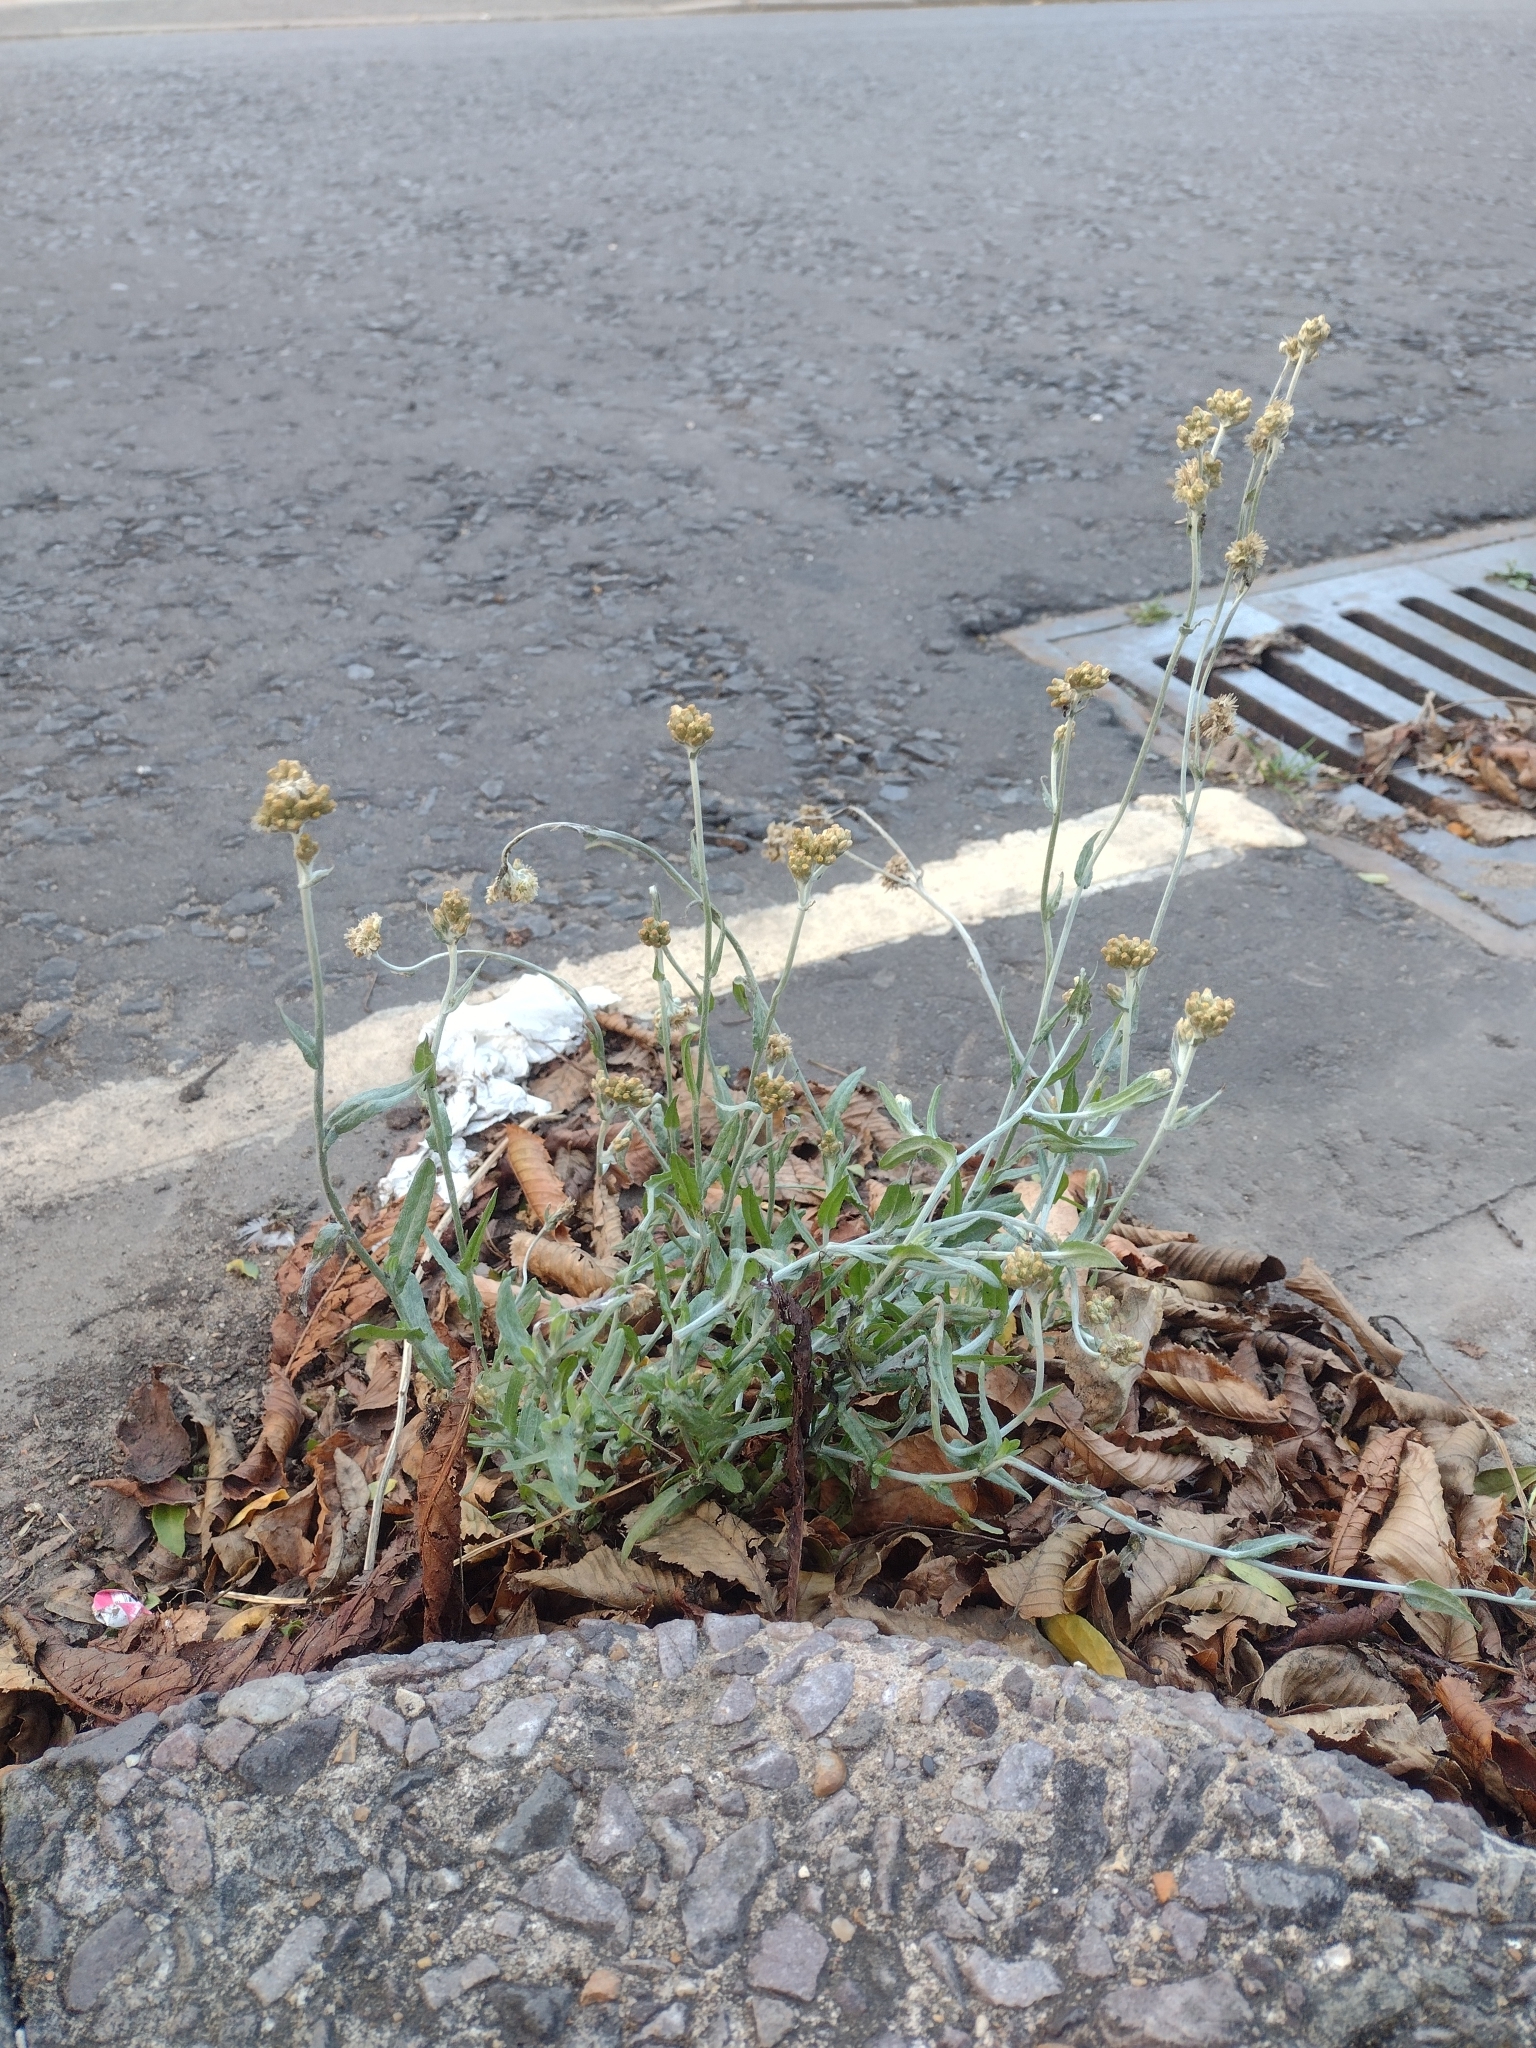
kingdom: Plantae
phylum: Tracheophyta
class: Magnoliopsida
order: Asterales
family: Asteraceae
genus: Helichrysum
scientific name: Helichrysum luteoalbum
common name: Daisy
